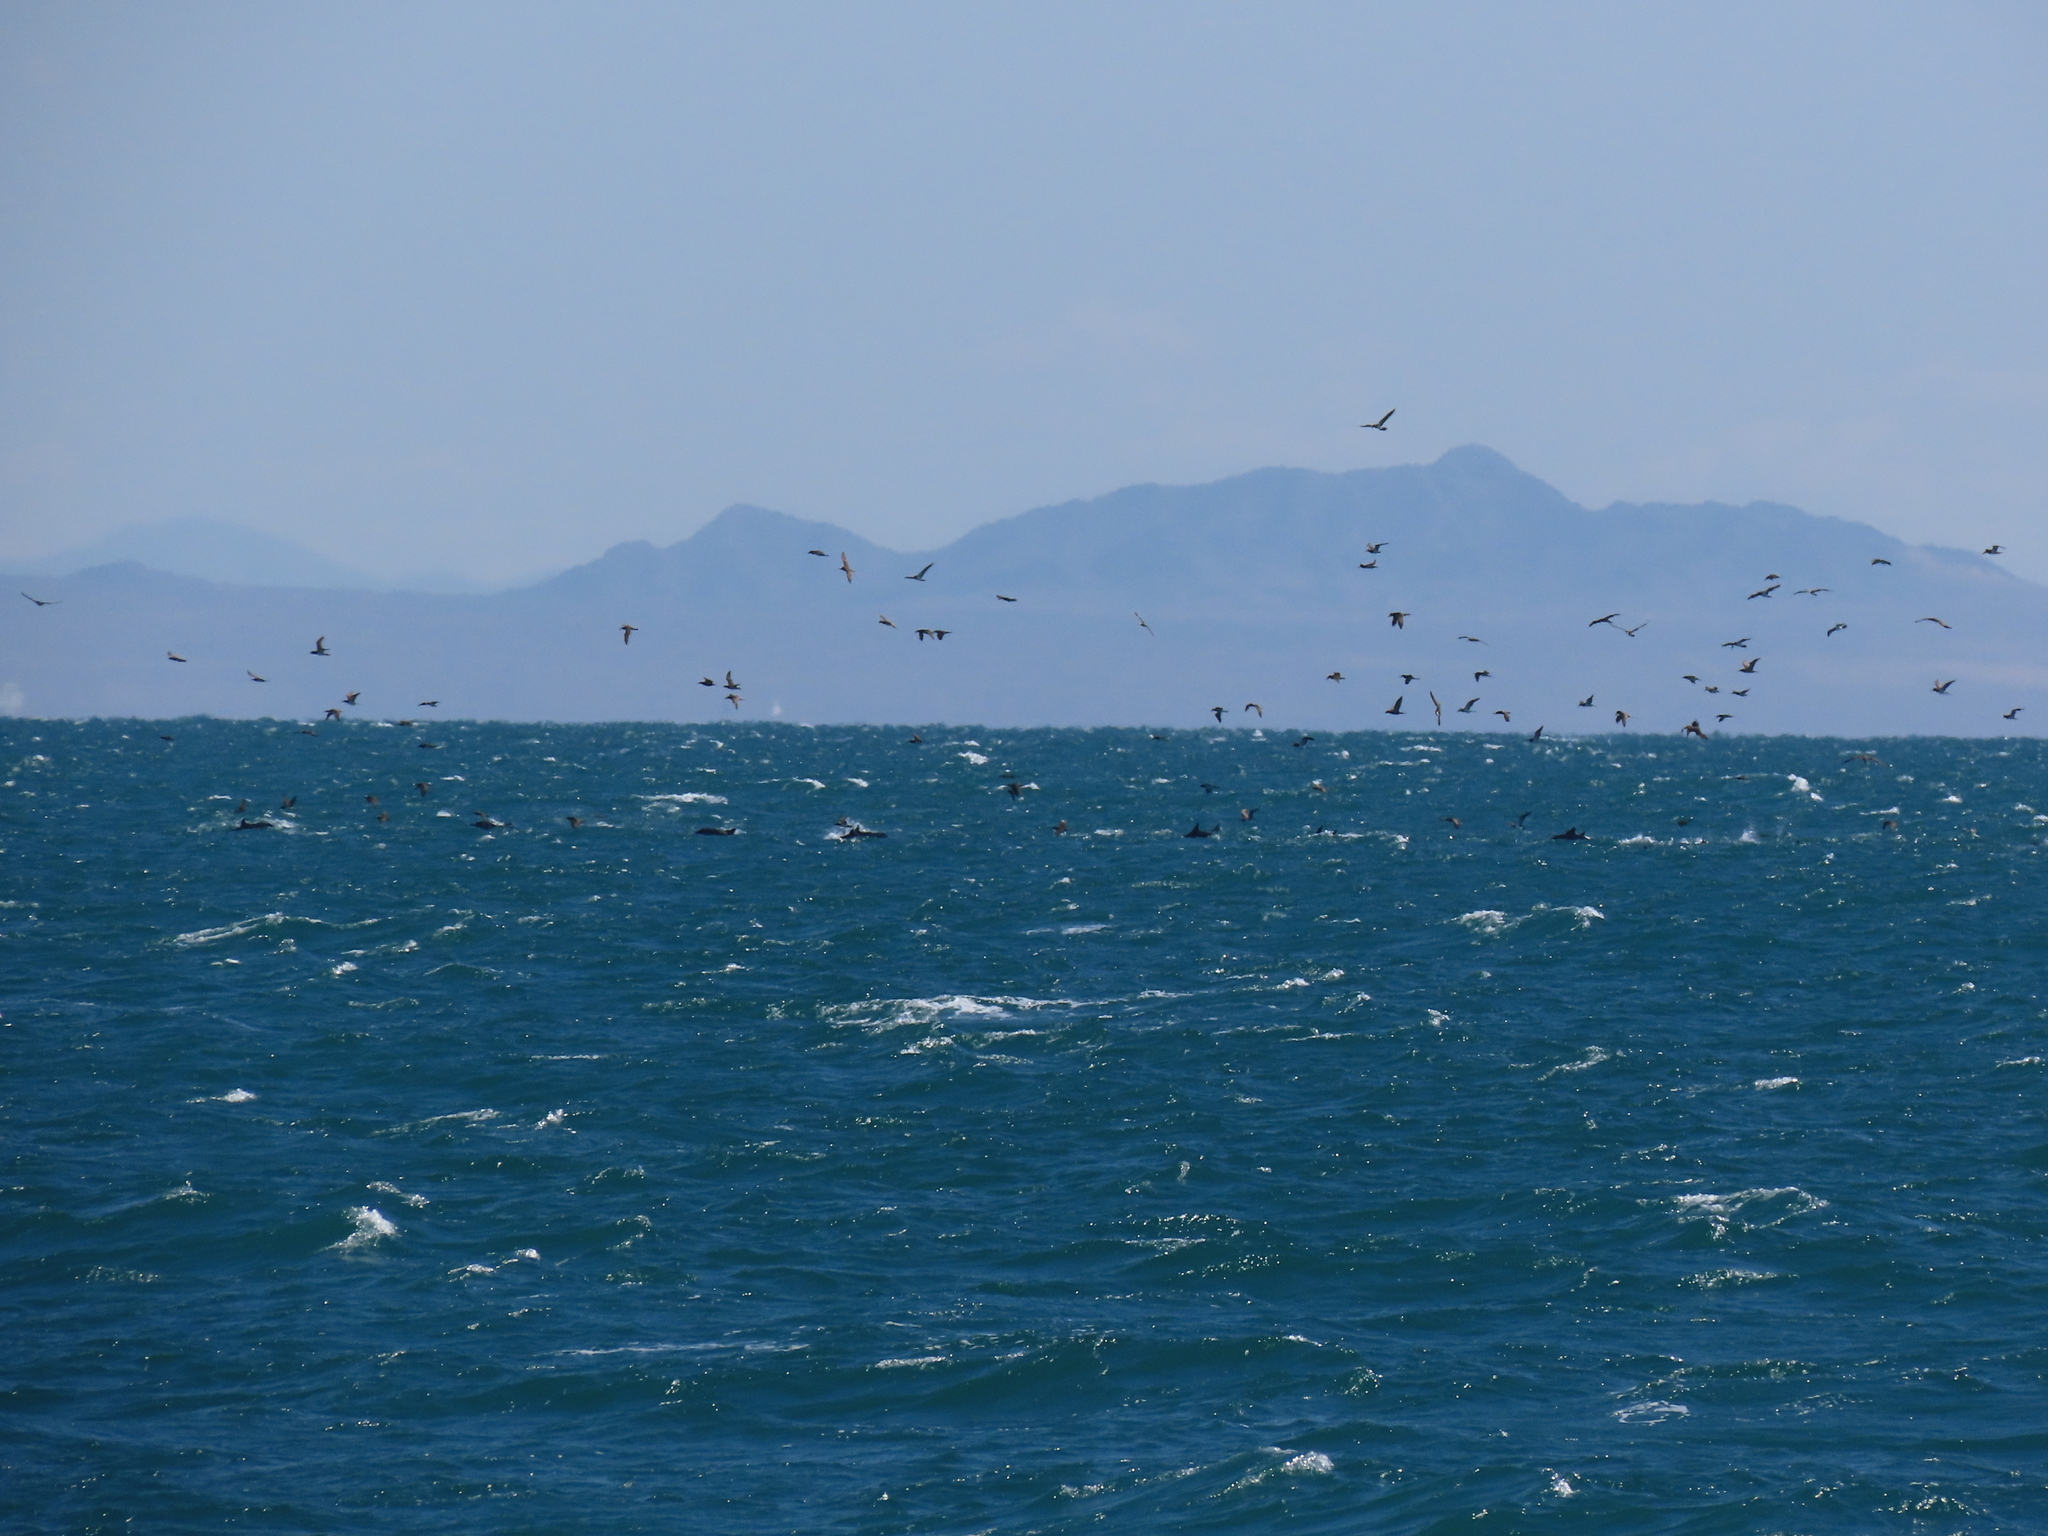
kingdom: Animalia
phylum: Chordata
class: Aves
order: Suliformes
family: Sulidae
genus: Sula
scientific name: Sula leucogaster
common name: Brown booby
